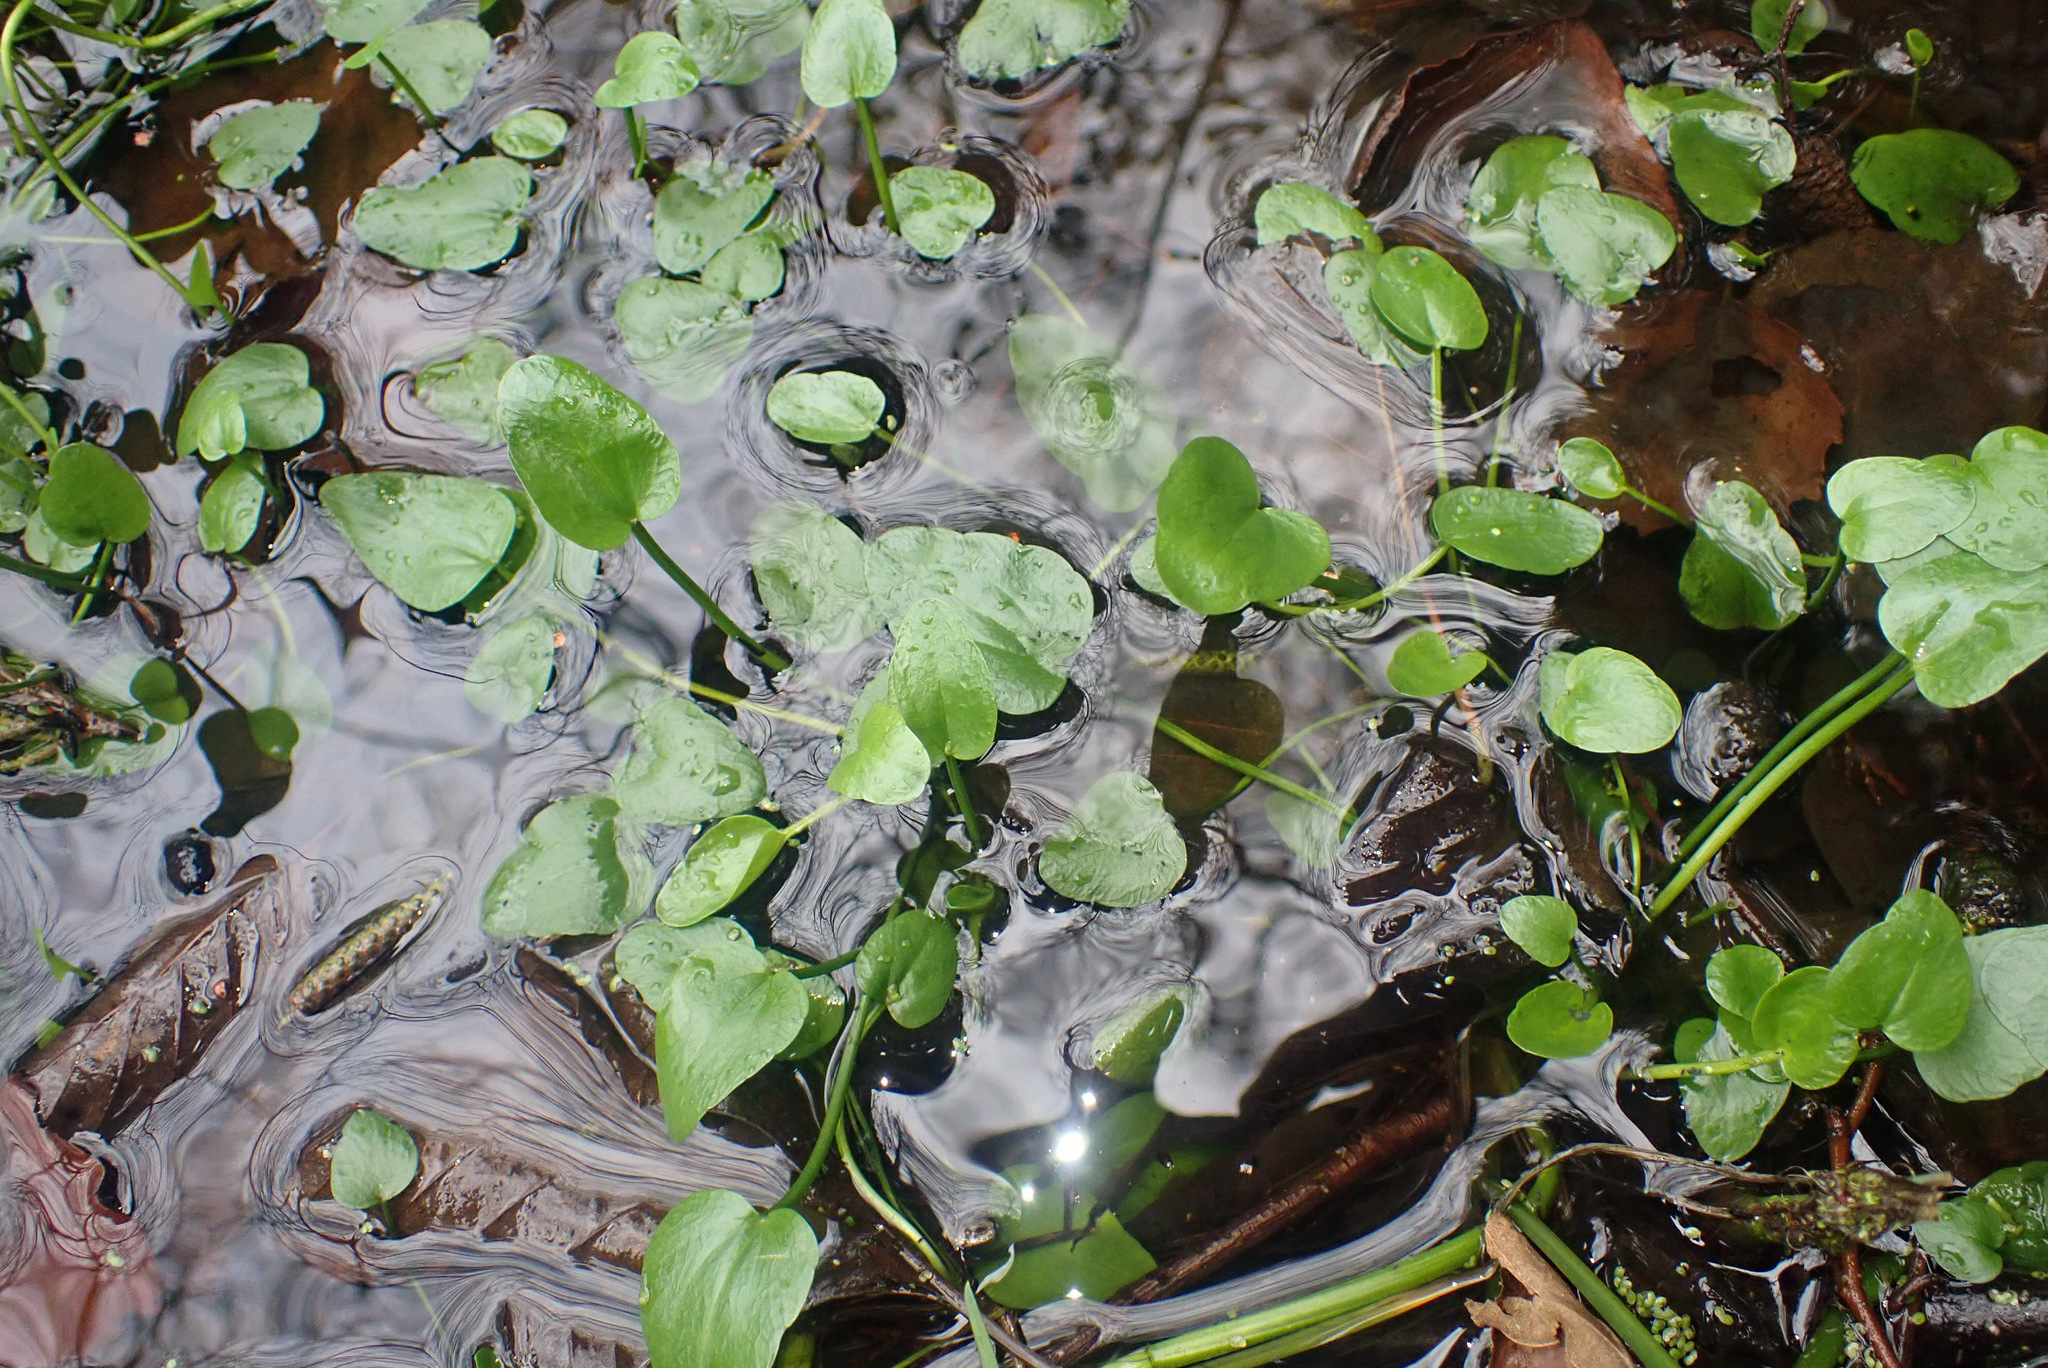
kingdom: Plantae
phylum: Tracheophyta
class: Magnoliopsida
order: Ranunculales
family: Ranunculaceae
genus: Ranunculus
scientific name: Ranunculus flammula
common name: Lesser spearwort
